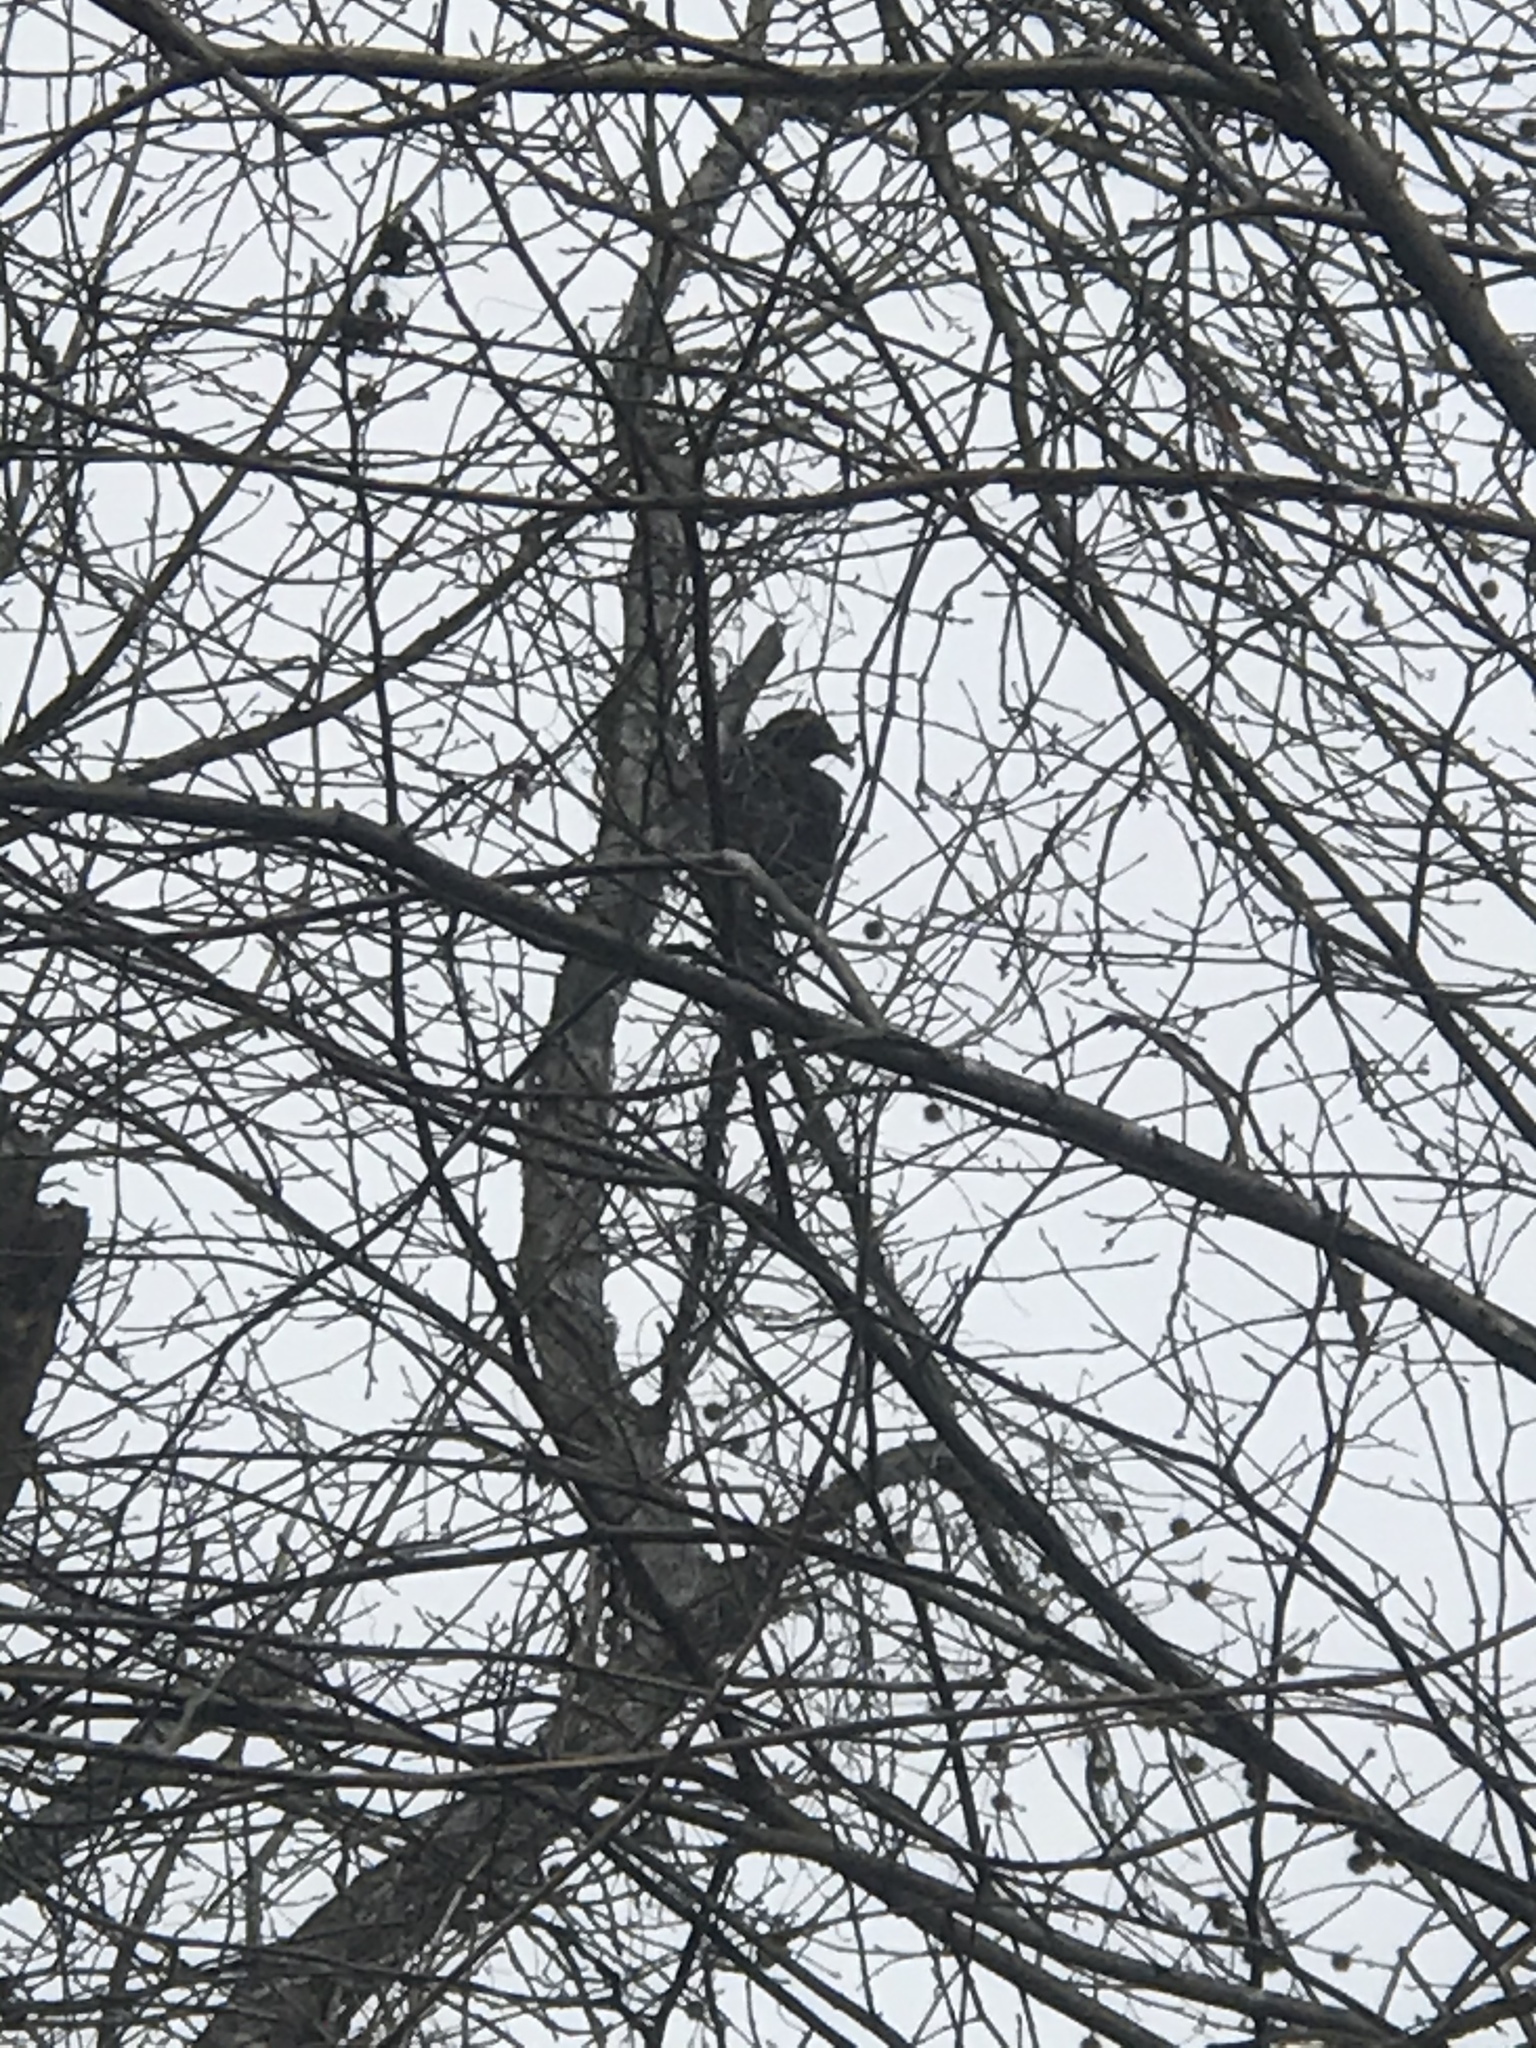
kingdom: Animalia
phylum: Chordata
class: Aves
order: Accipitriformes
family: Cathartidae
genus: Coragyps
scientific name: Coragyps atratus
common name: Black vulture
